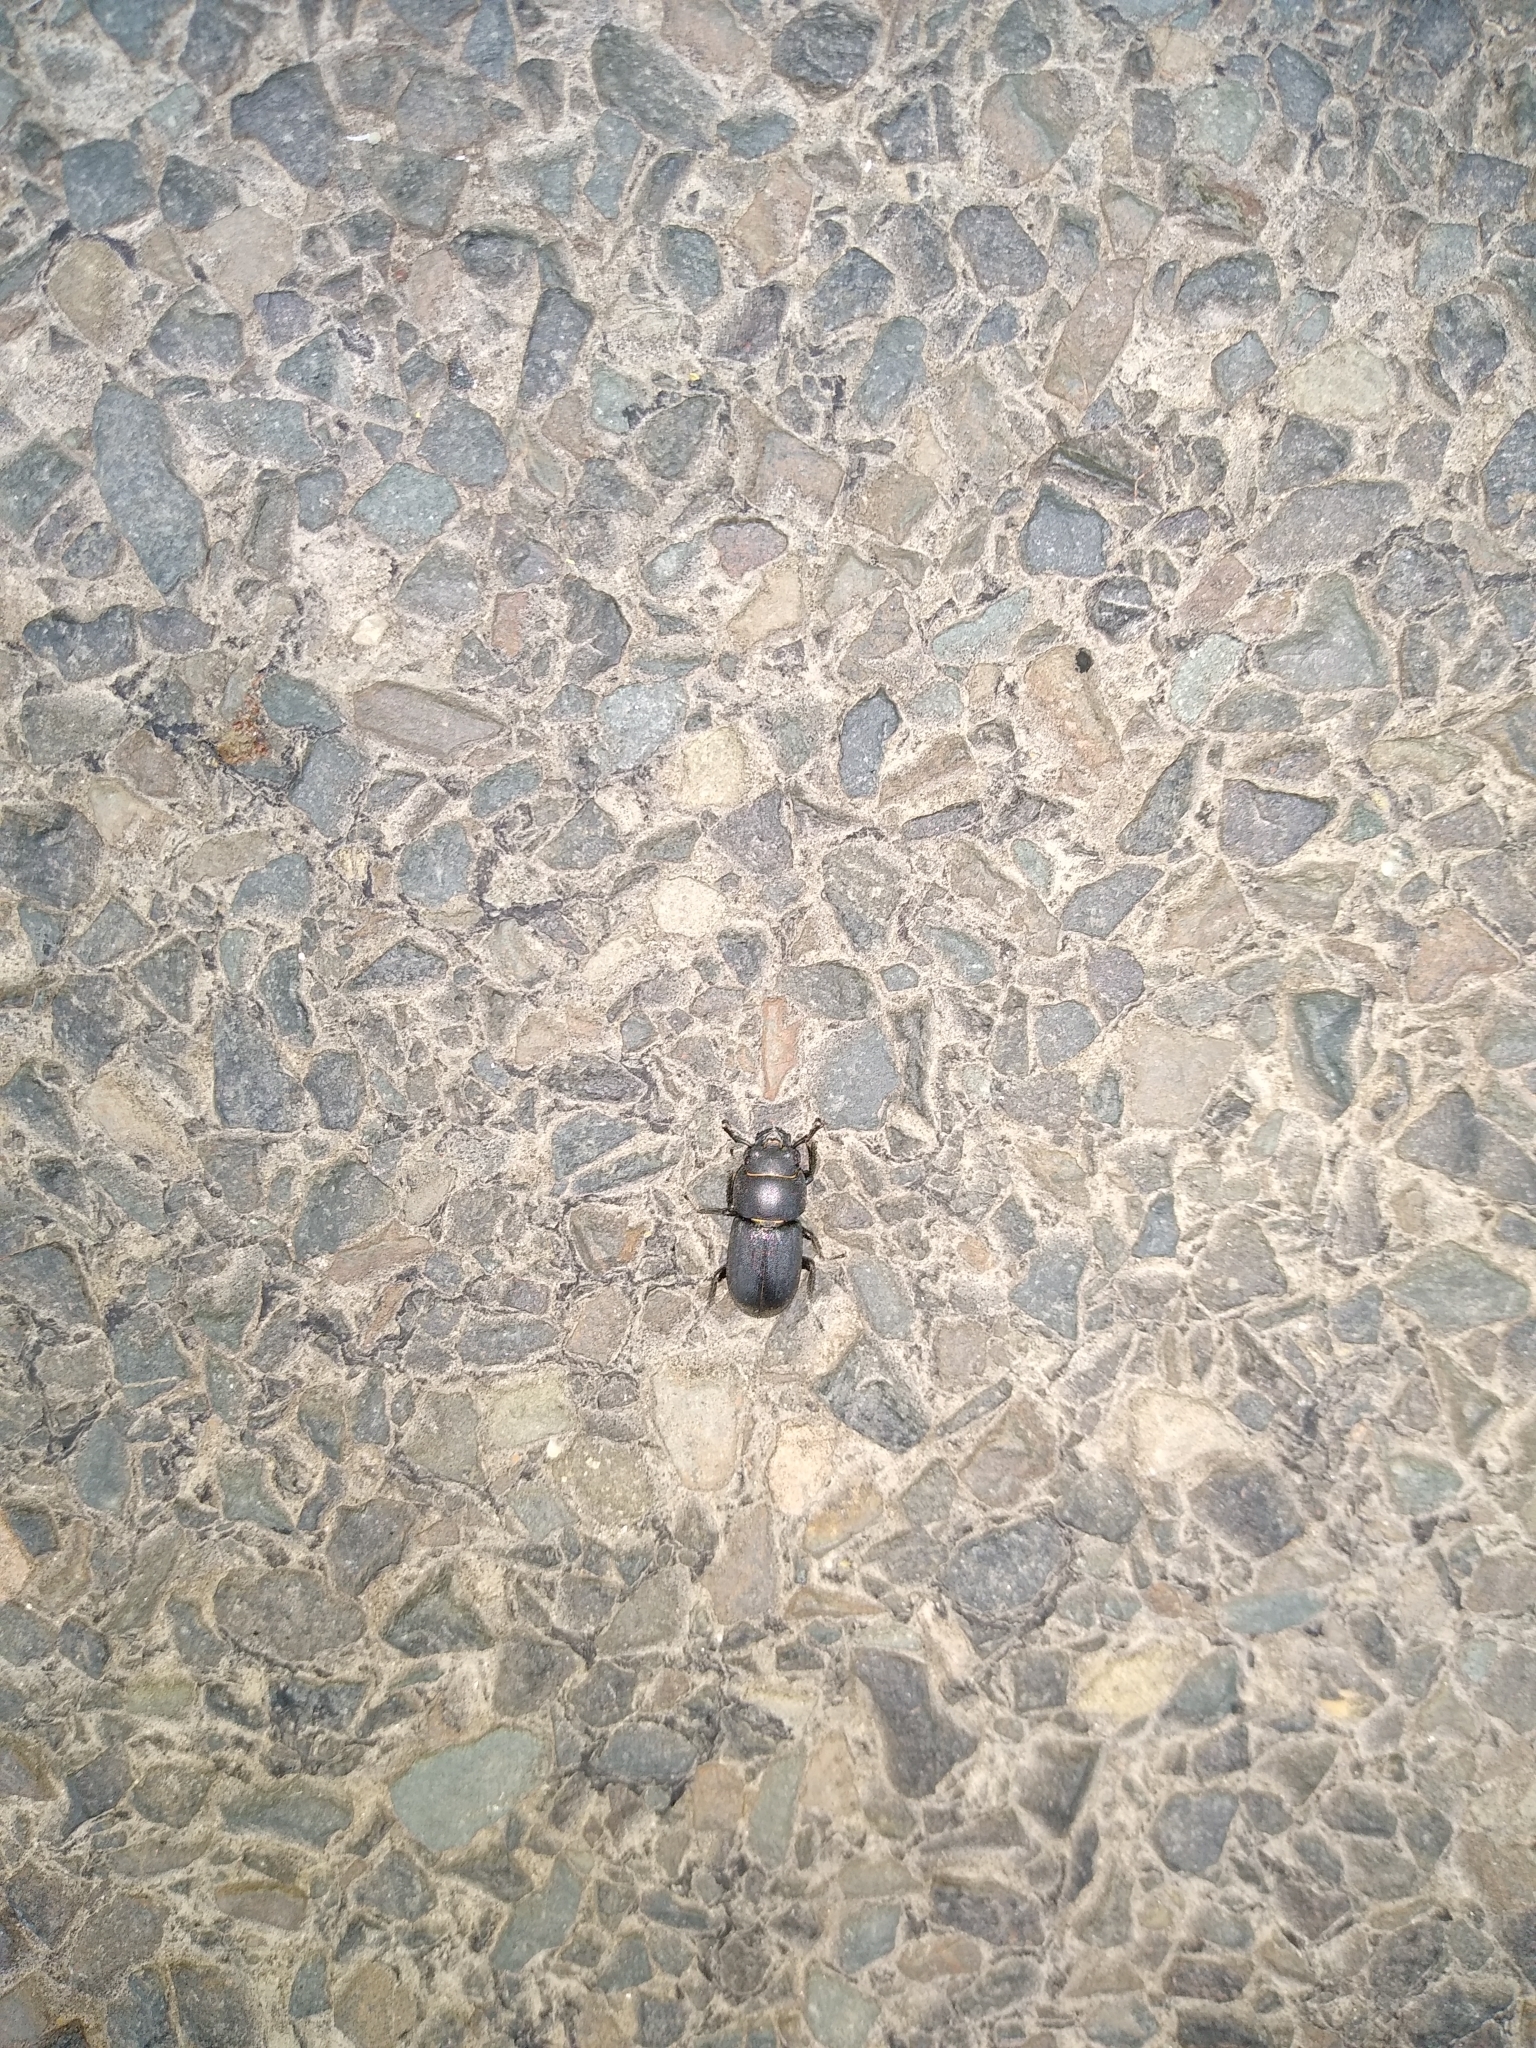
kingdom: Animalia
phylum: Arthropoda
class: Insecta
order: Coleoptera
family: Lucanidae
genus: Dorcus
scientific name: Dorcus parallelipipedus
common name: Lesser stag beetle
